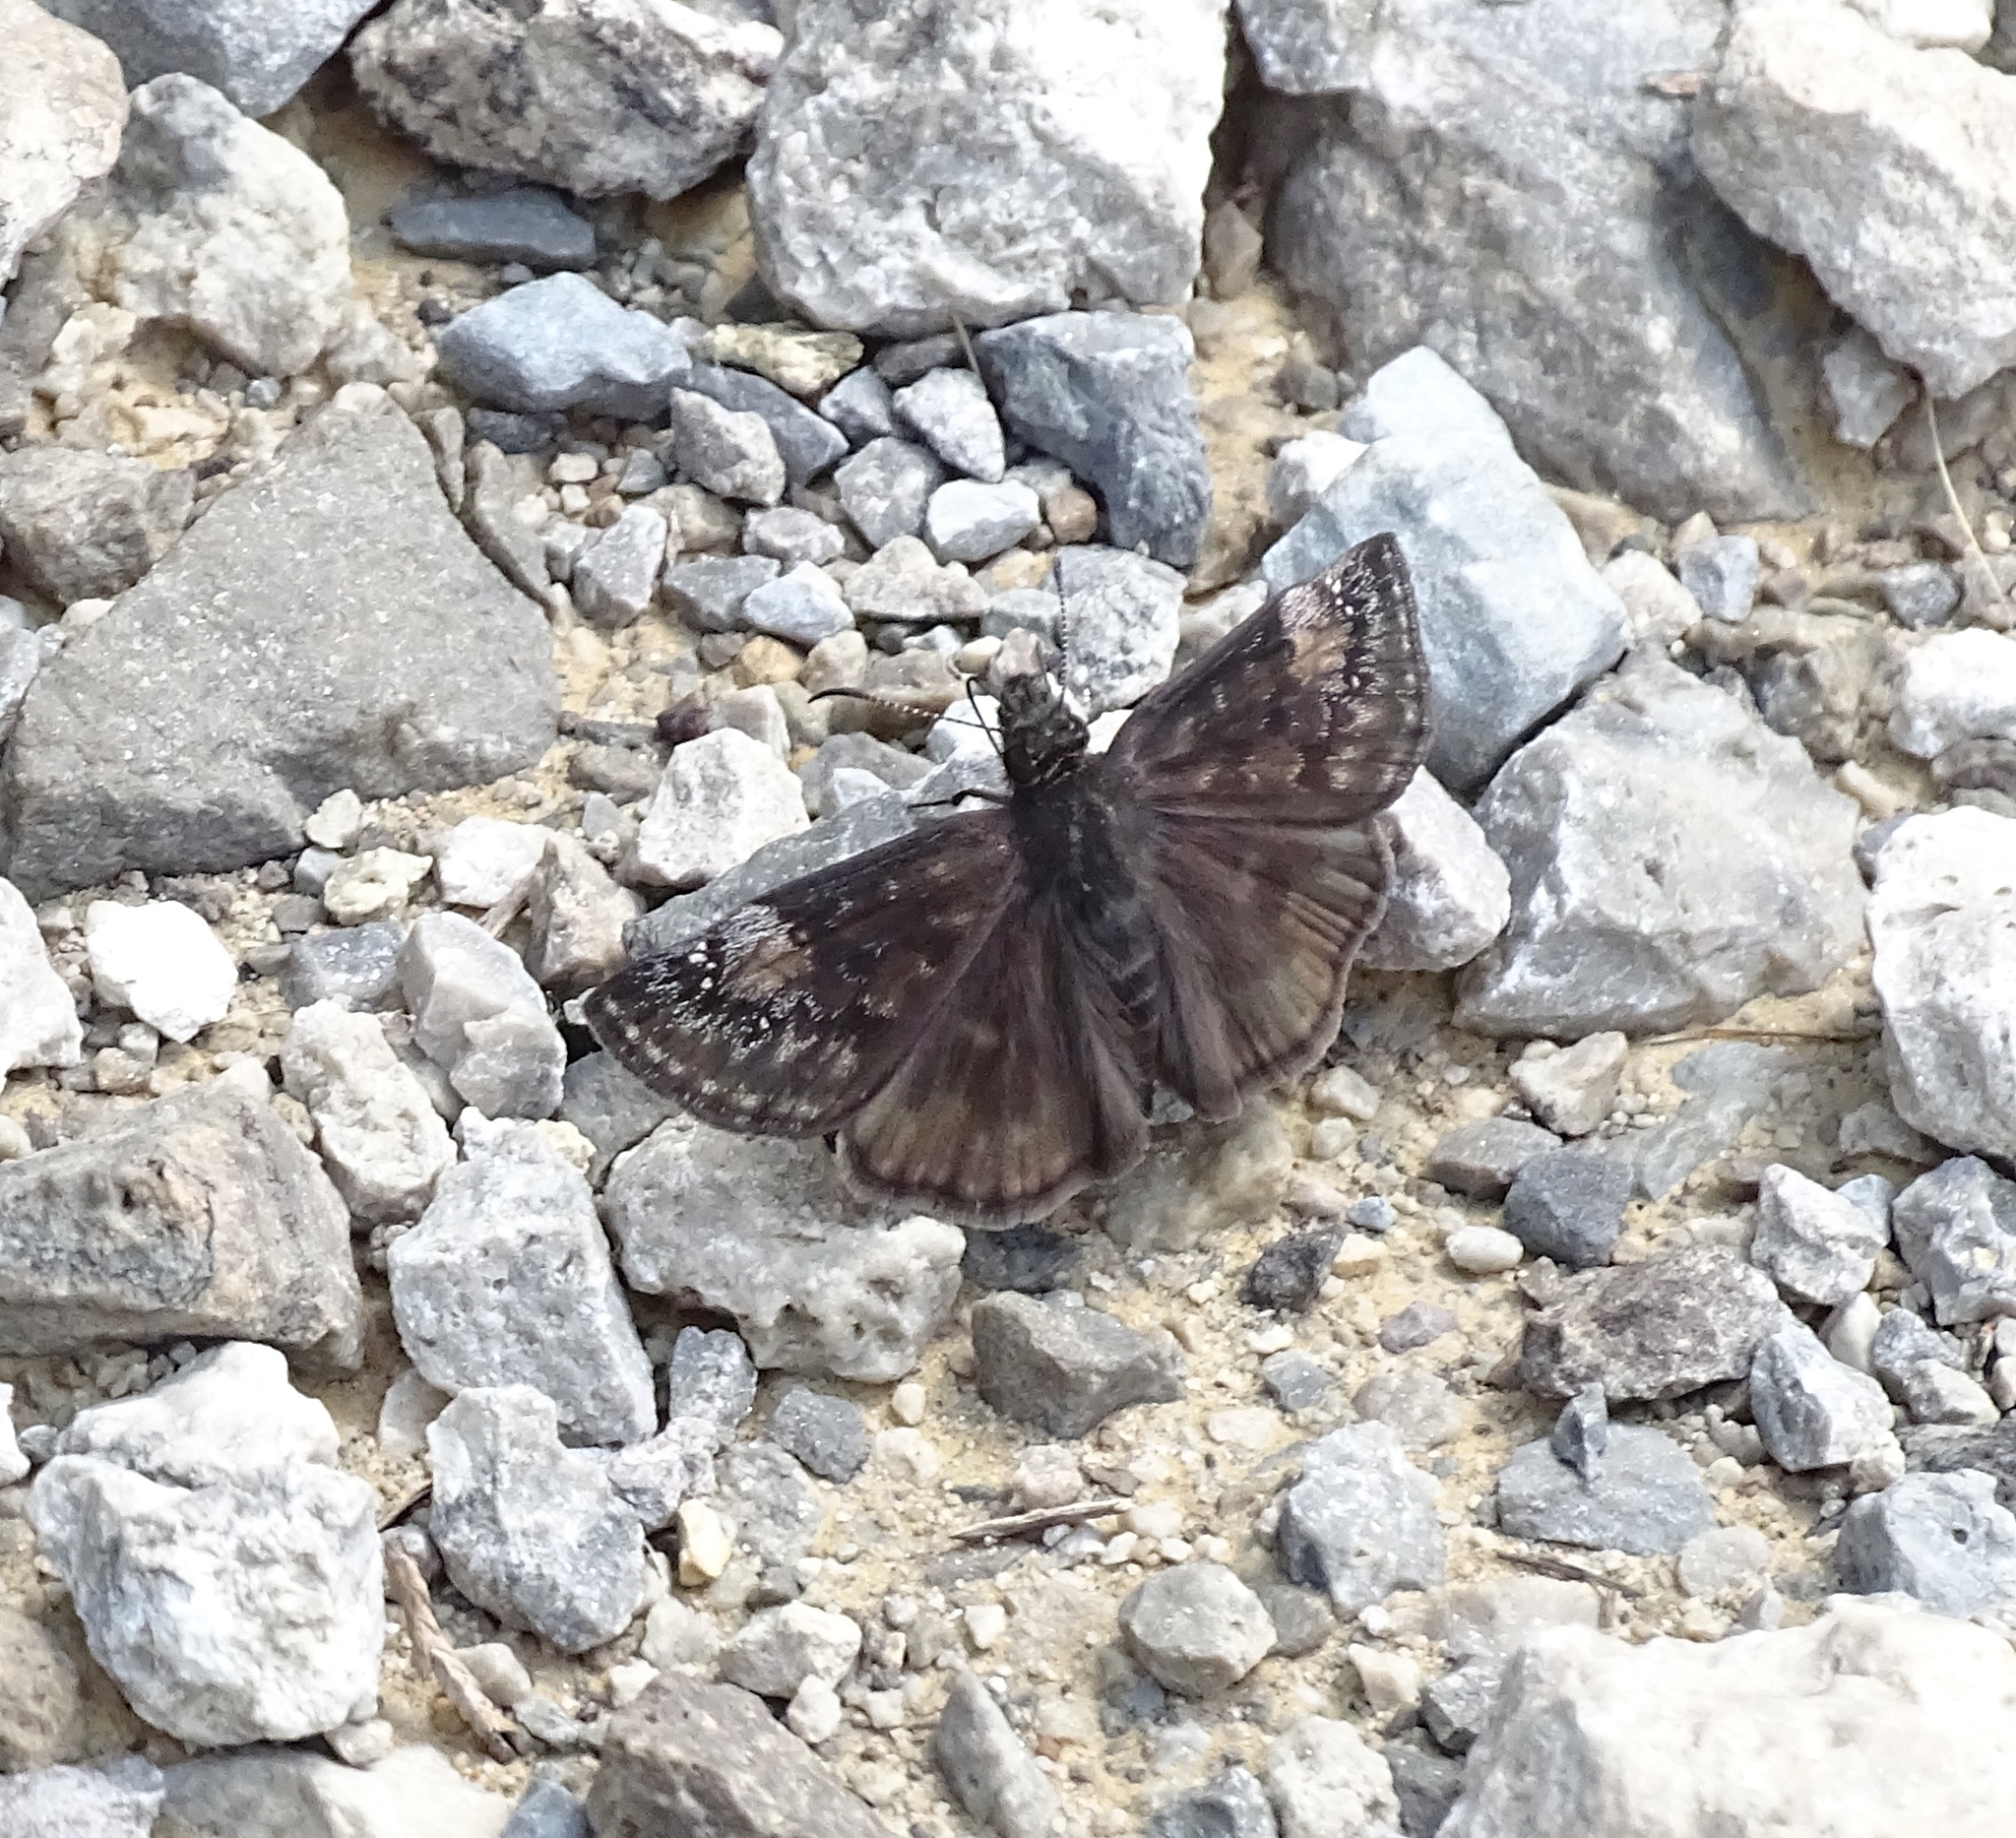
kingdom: Animalia
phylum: Arthropoda
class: Insecta
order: Lepidoptera
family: Hesperiidae
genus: Erynnis
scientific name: Erynnis baptisiae
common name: Wild indigo duskywing
